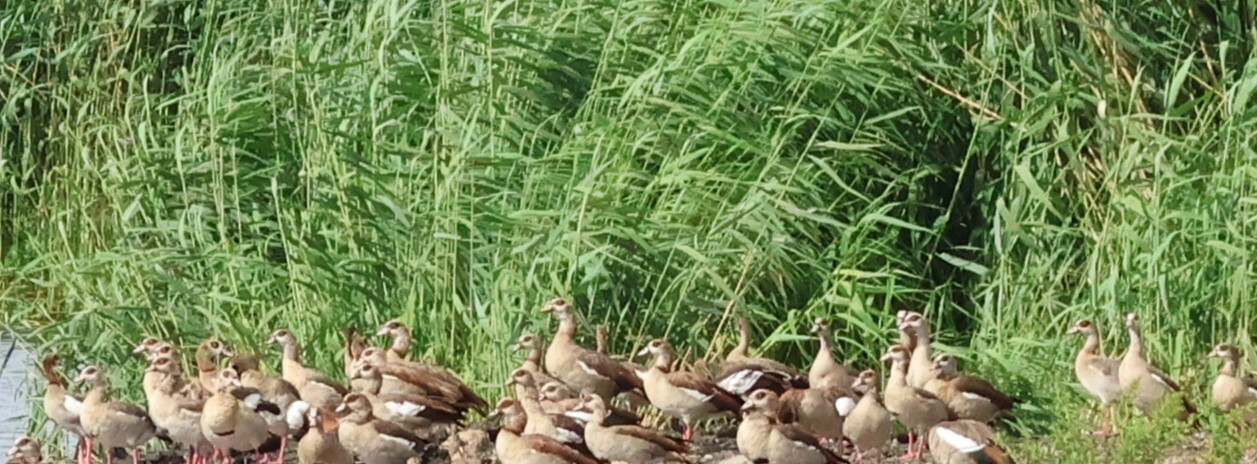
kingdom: Animalia
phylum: Chordata
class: Aves
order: Anseriformes
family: Anatidae
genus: Alopochen
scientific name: Alopochen aegyptiaca
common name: Egyptian goose
